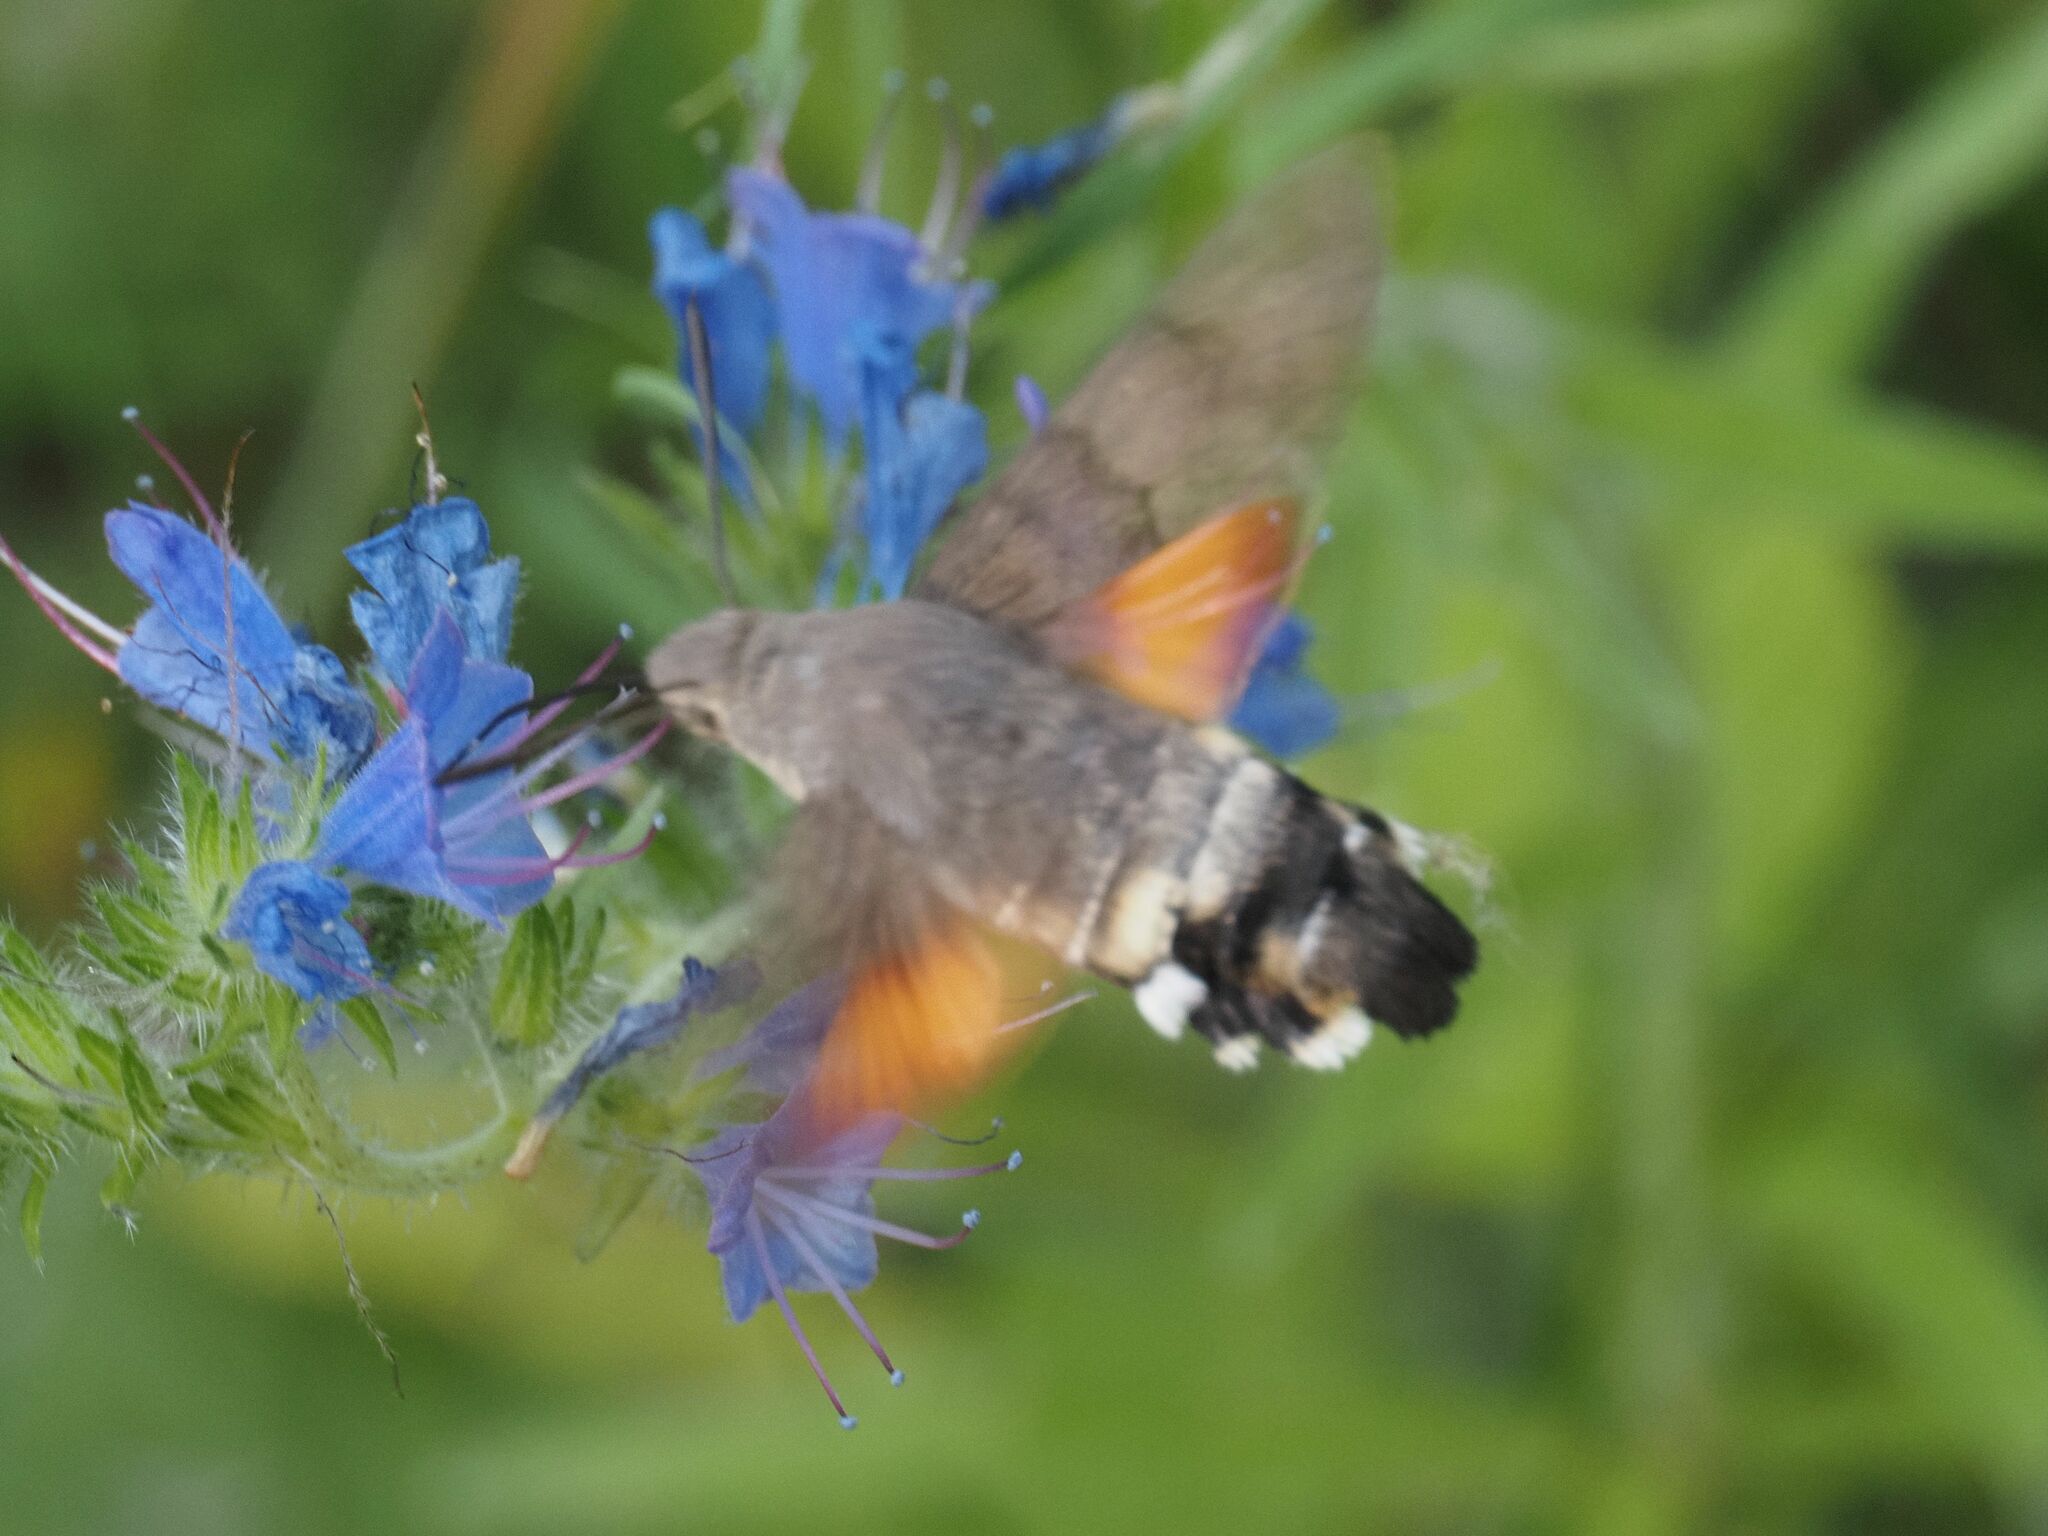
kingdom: Animalia
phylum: Arthropoda
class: Insecta
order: Lepidoptera
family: Sphingidae
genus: Macroglossum
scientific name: Macroglossum stellatarum
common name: Humming-bird hawk-moth
